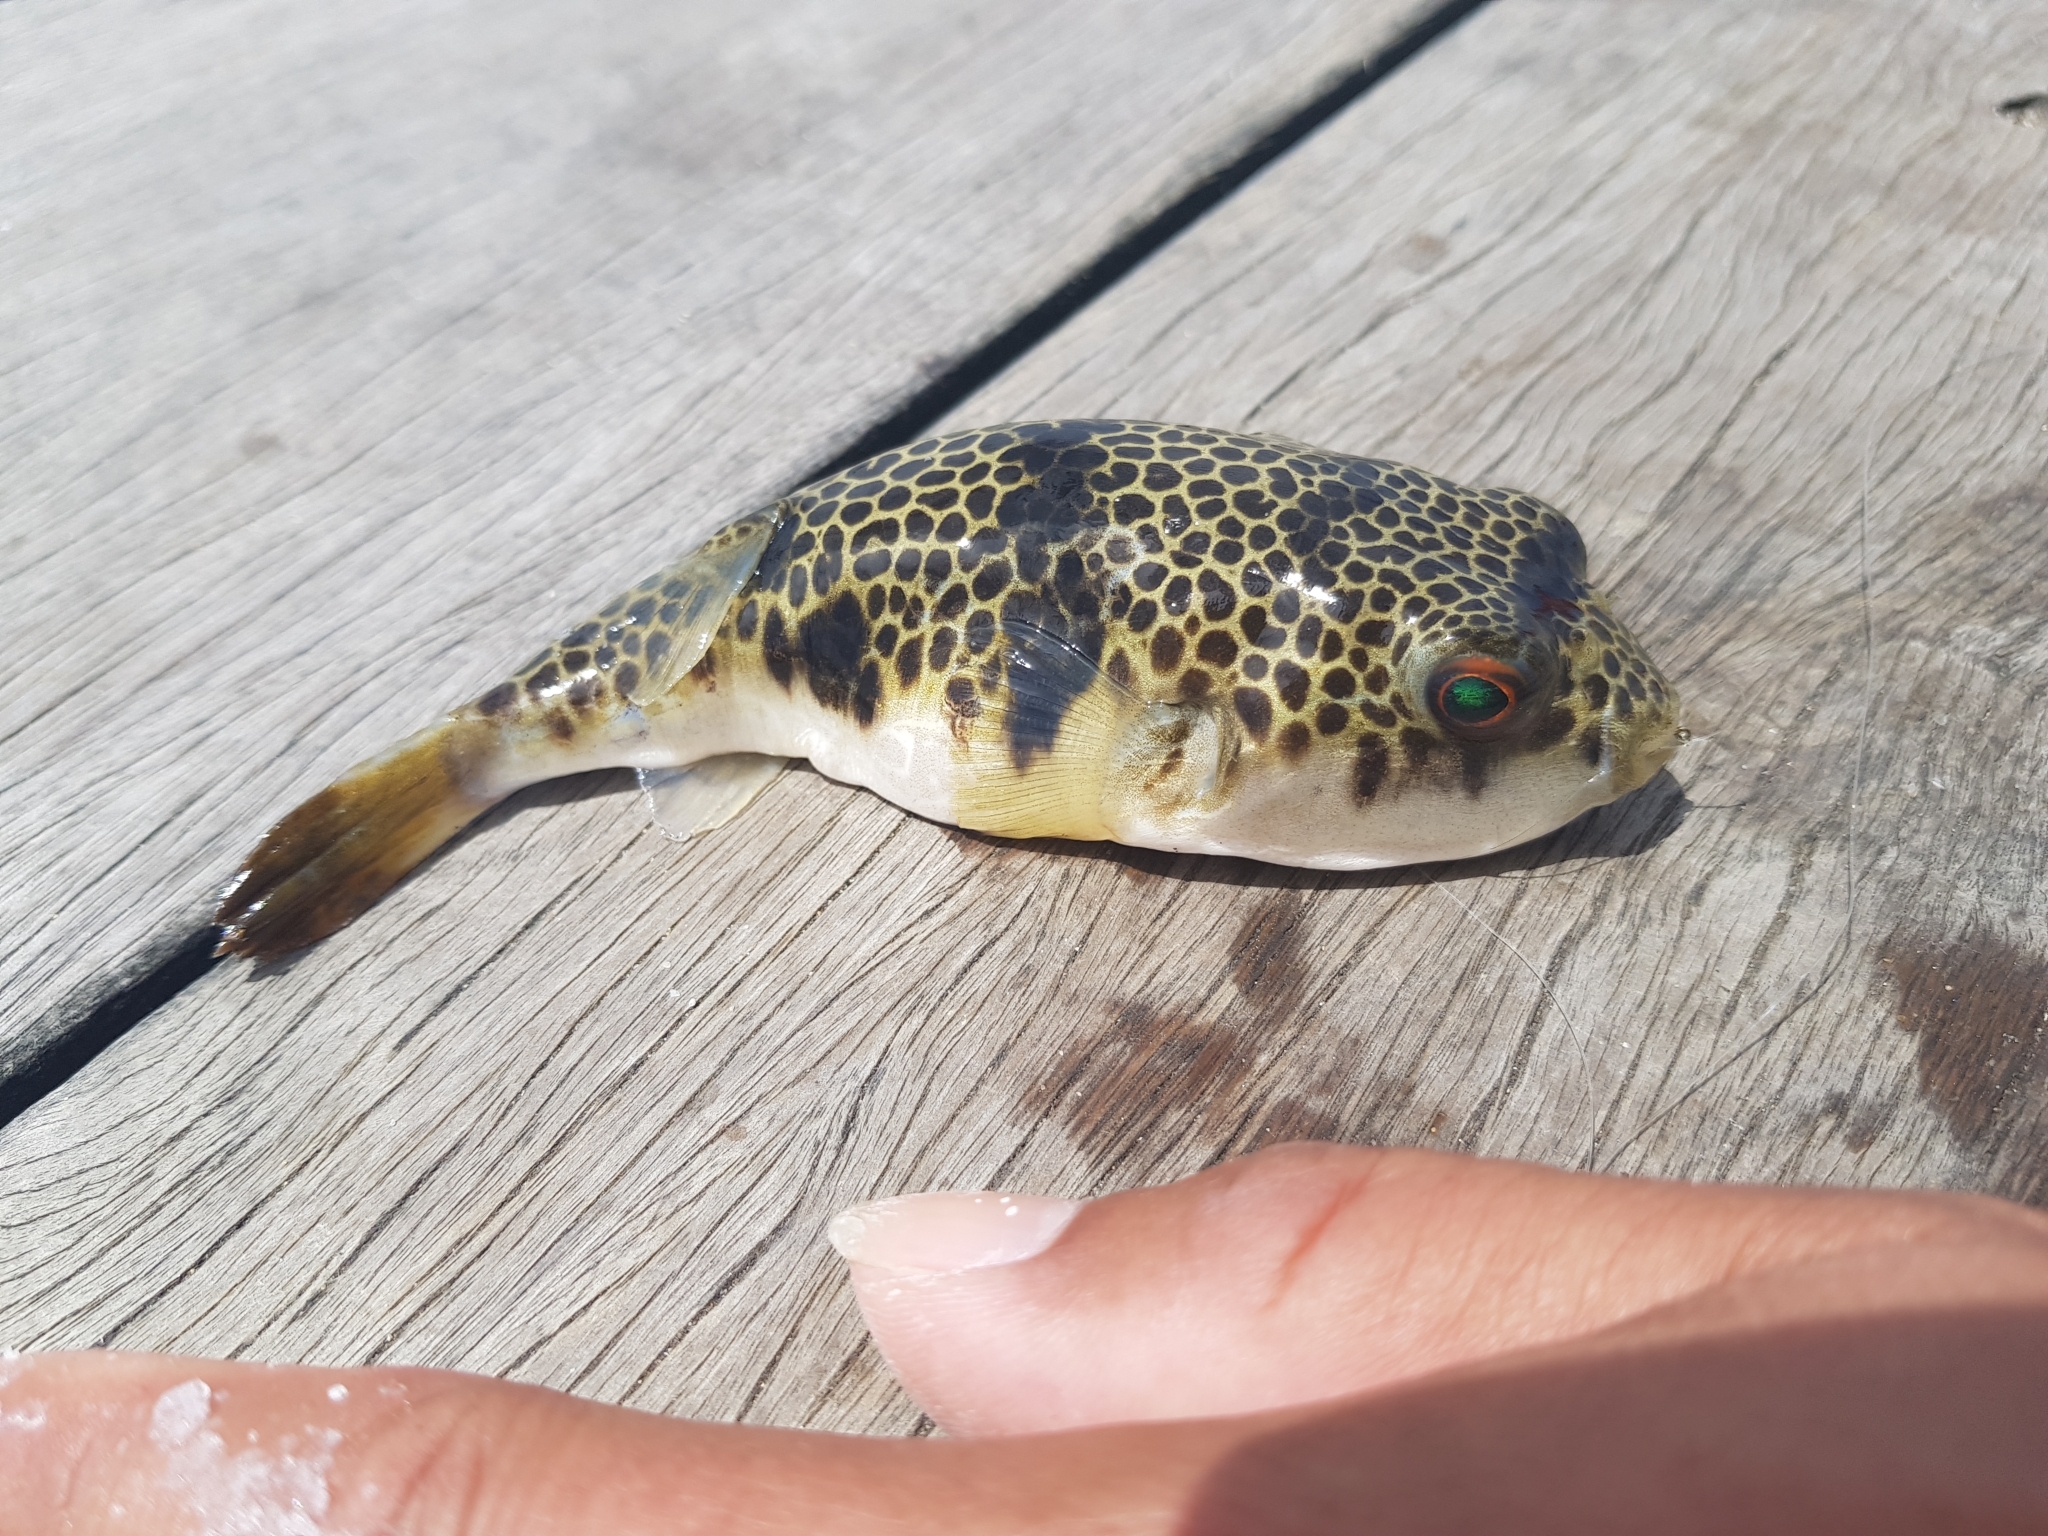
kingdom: Animalia
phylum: Chordata
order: Tetraodontiformes
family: Tetraodontidae
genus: Tetractenos
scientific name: Tetractenos glaber
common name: Smooth toadfish
